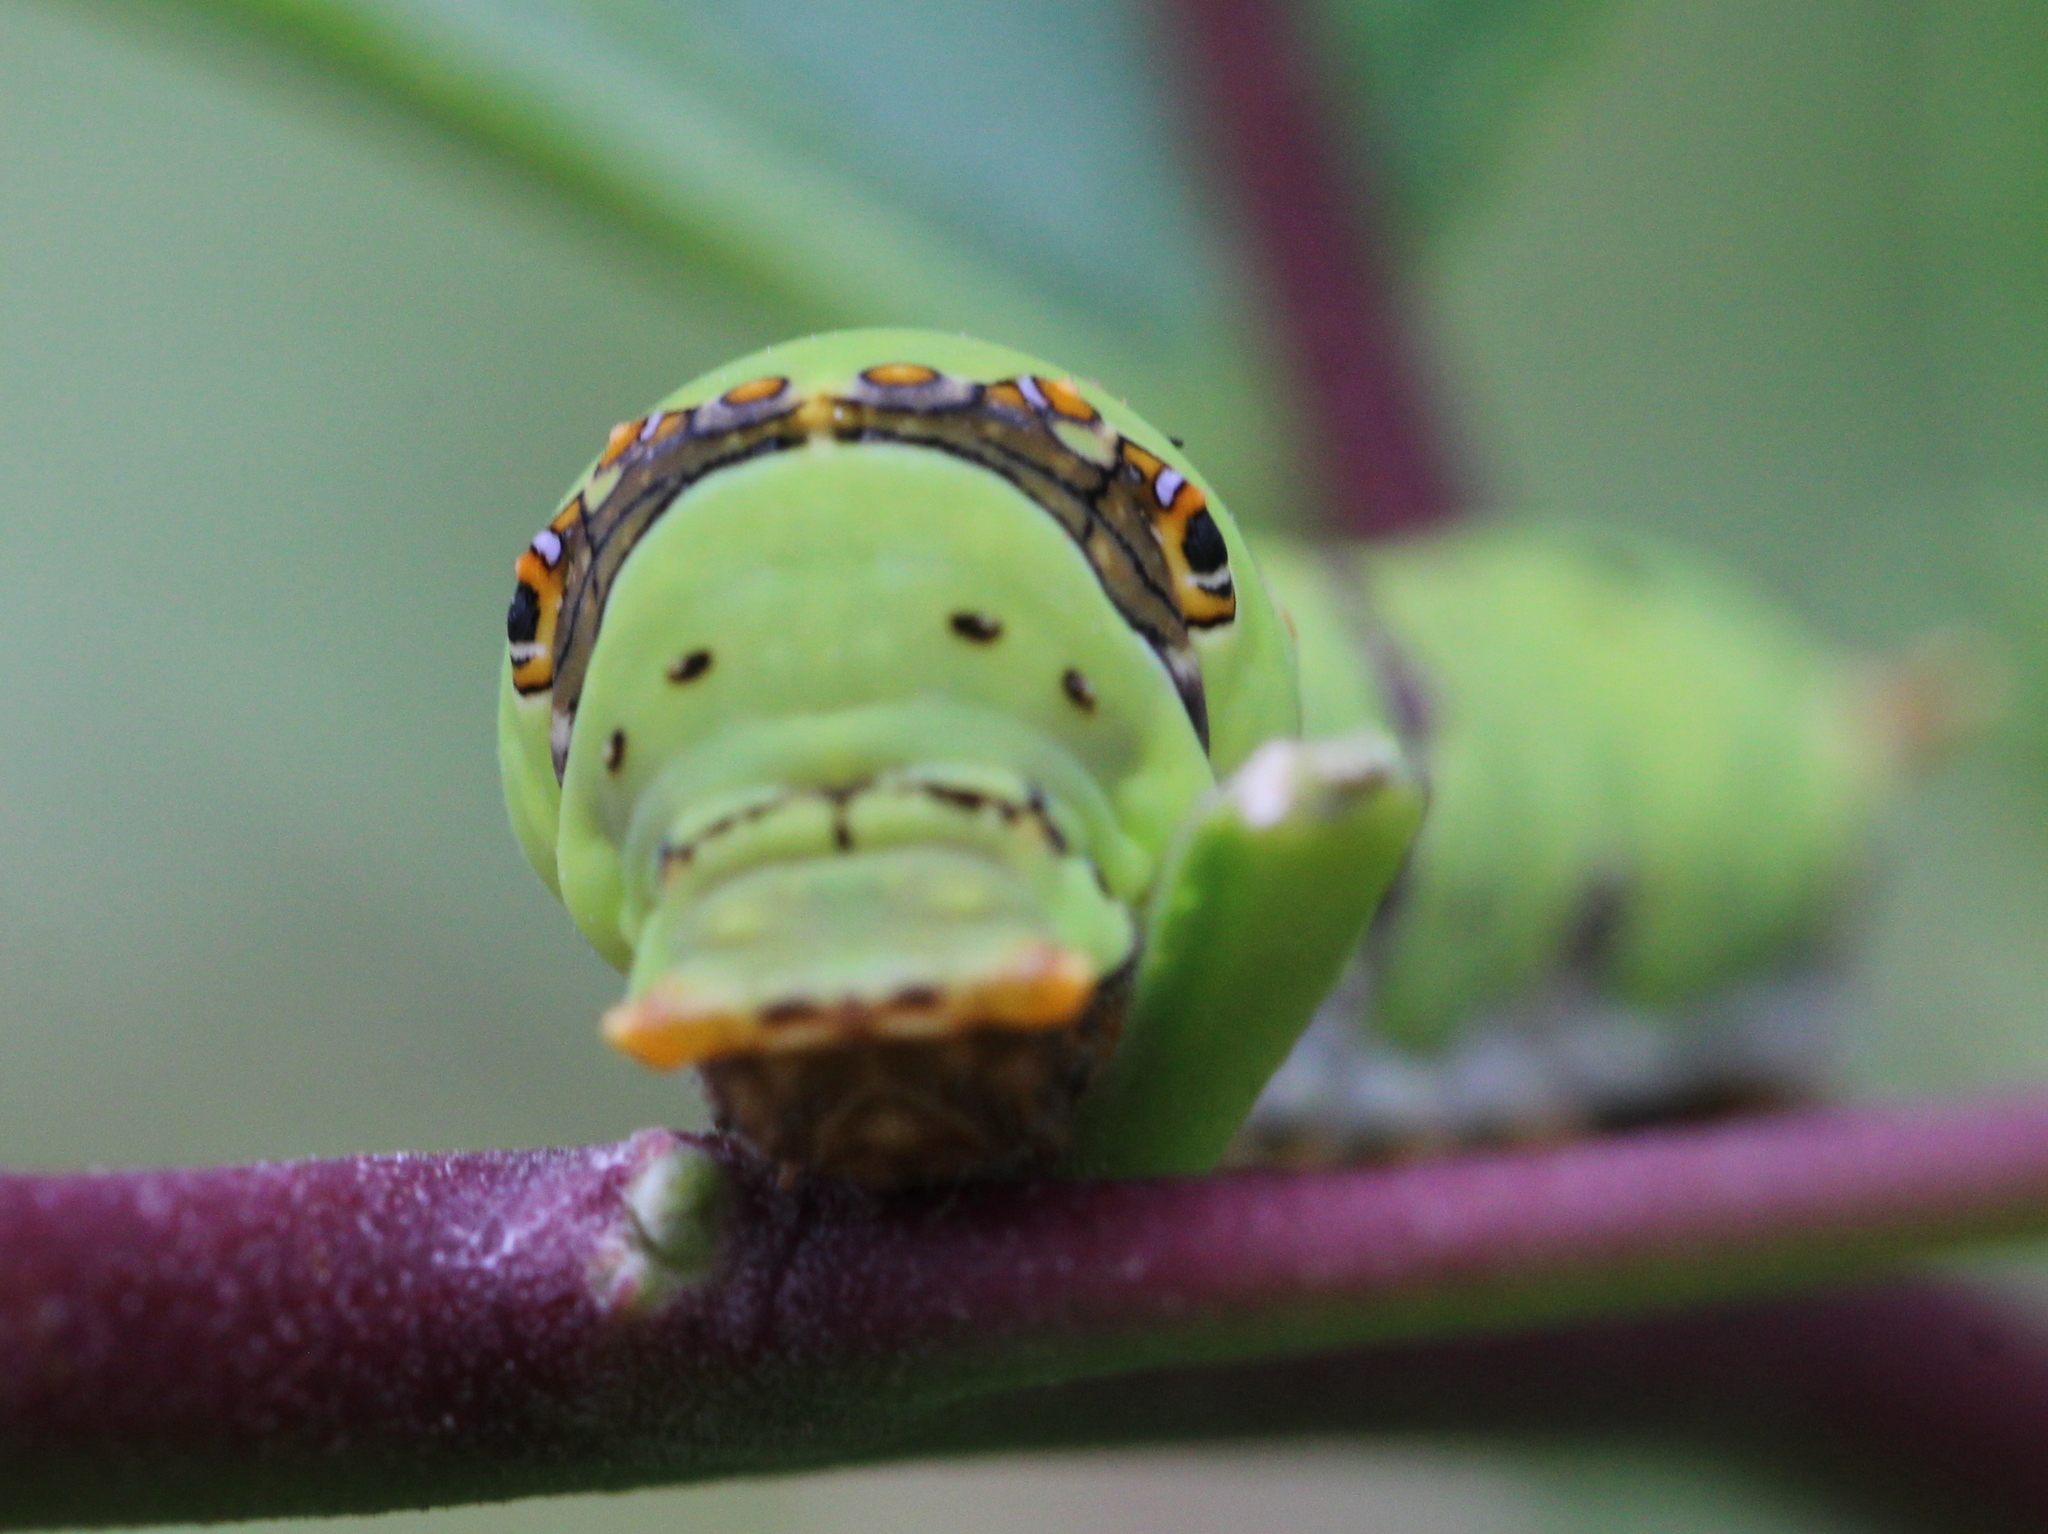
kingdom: Animalia
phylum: Arthropoda
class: Insecta
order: Lepidoptera
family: Papilionidae
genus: Papilio
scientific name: Papilio demoleus
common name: Lime butterfly
